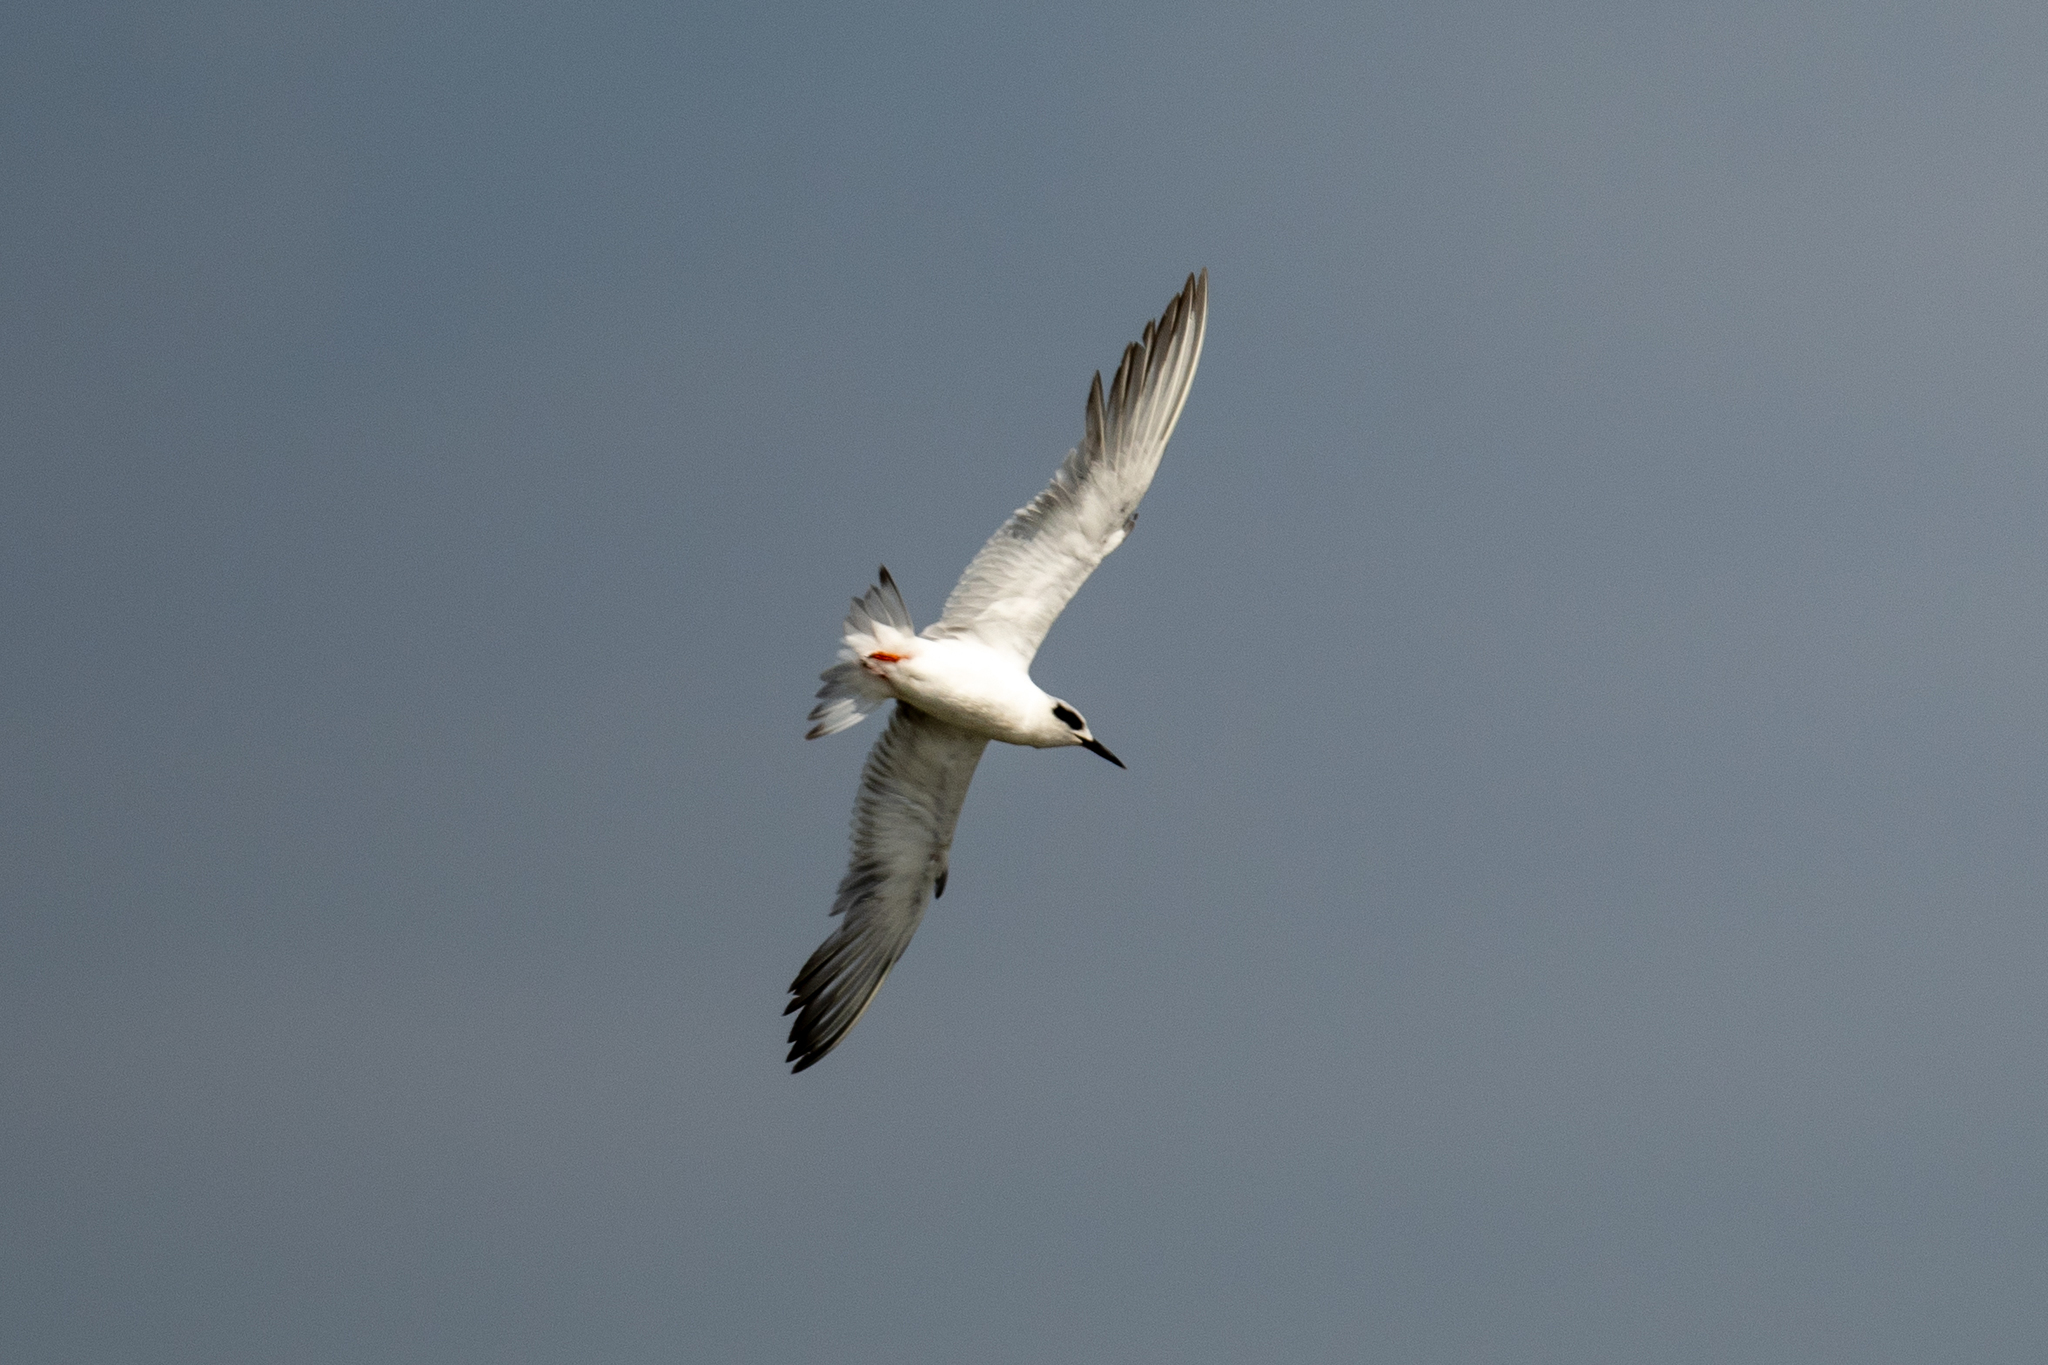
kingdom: Animalia
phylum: Chordata
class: Aves
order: Charadriiformes
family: Laridae
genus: Sterna
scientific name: Sterna forsteri
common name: Forster's tern
